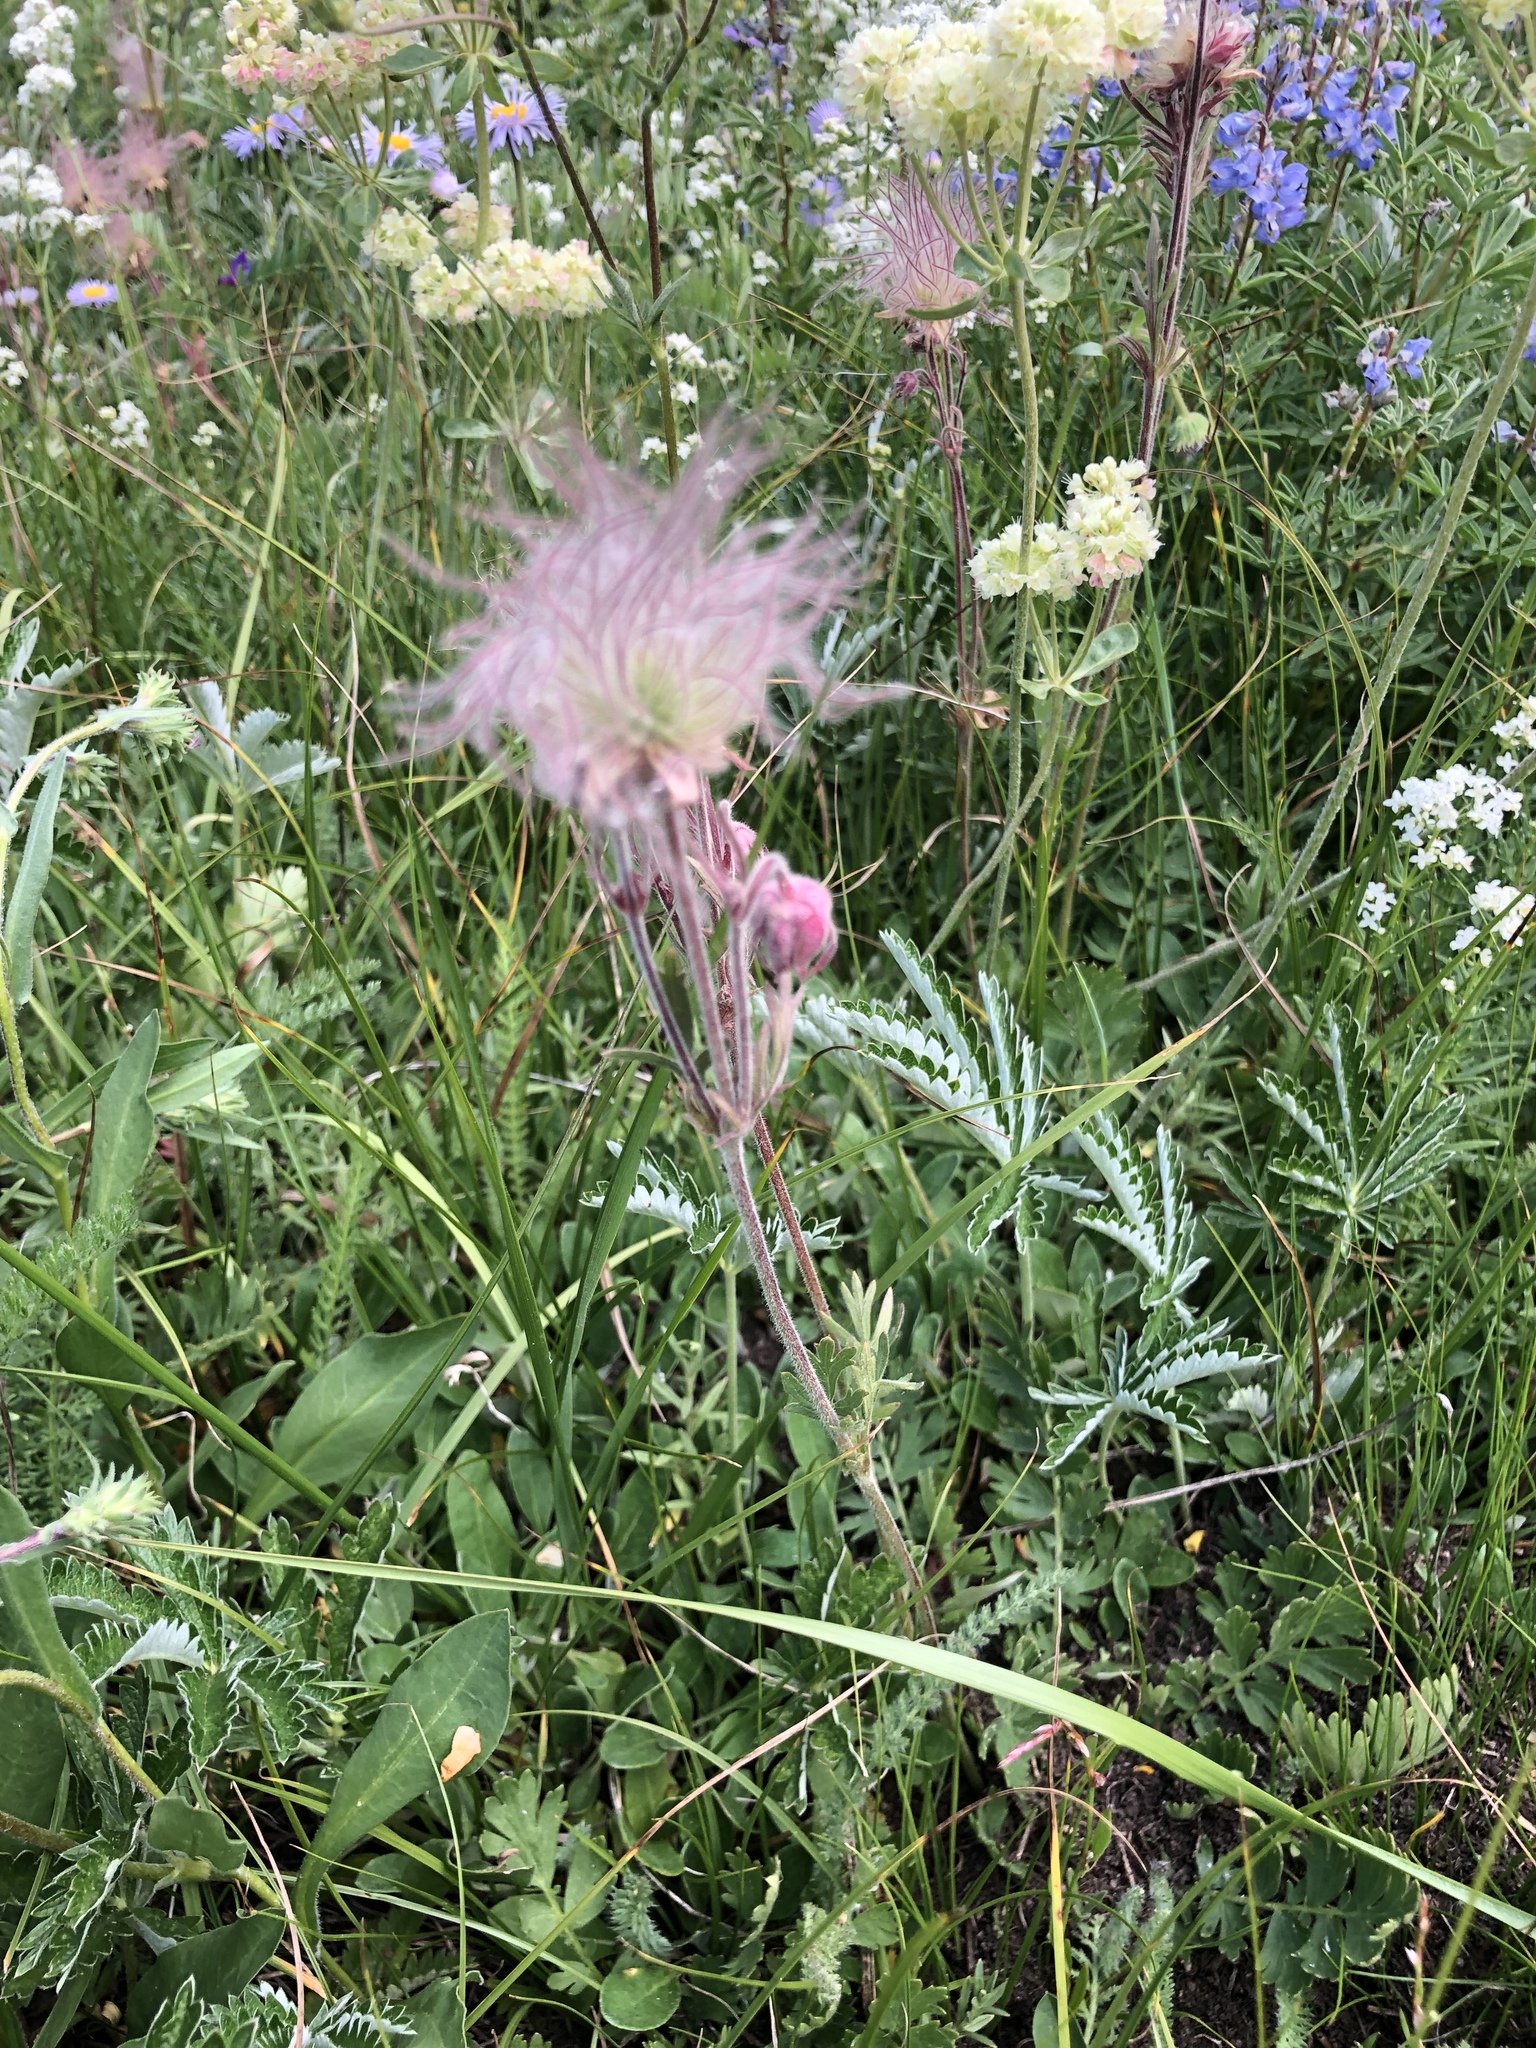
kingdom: Plantae
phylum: Tracheophyta
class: Magnoliopsida
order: Rosales
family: Rosaceae
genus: Geum
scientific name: Geum triflorum
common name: Old man's whiskers
